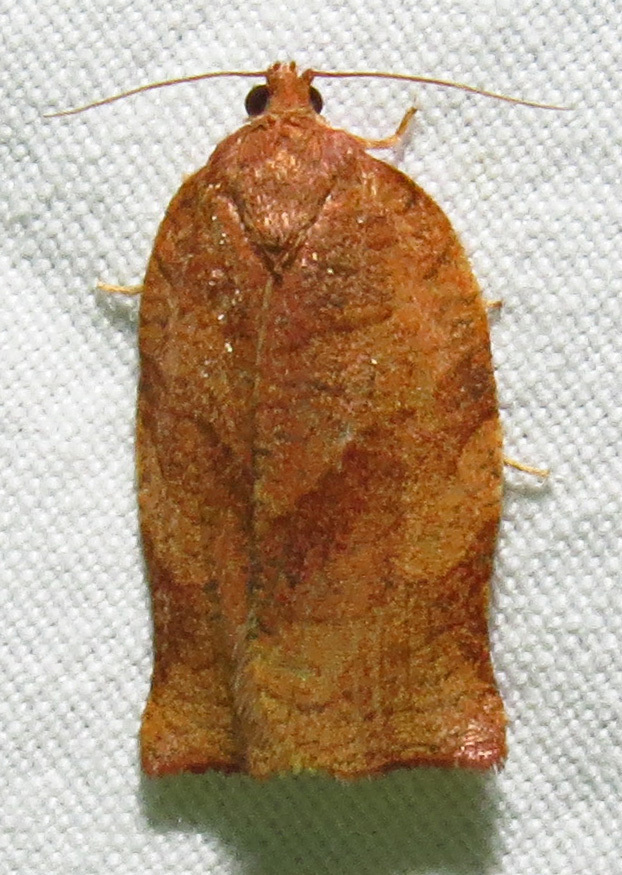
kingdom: Animalia
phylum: Arthropoda
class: Insecta
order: Lepidoptera
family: Tortricidae
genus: Choristoneura
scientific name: Choristoneura parallela
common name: Parallel-banded leafroller moth
